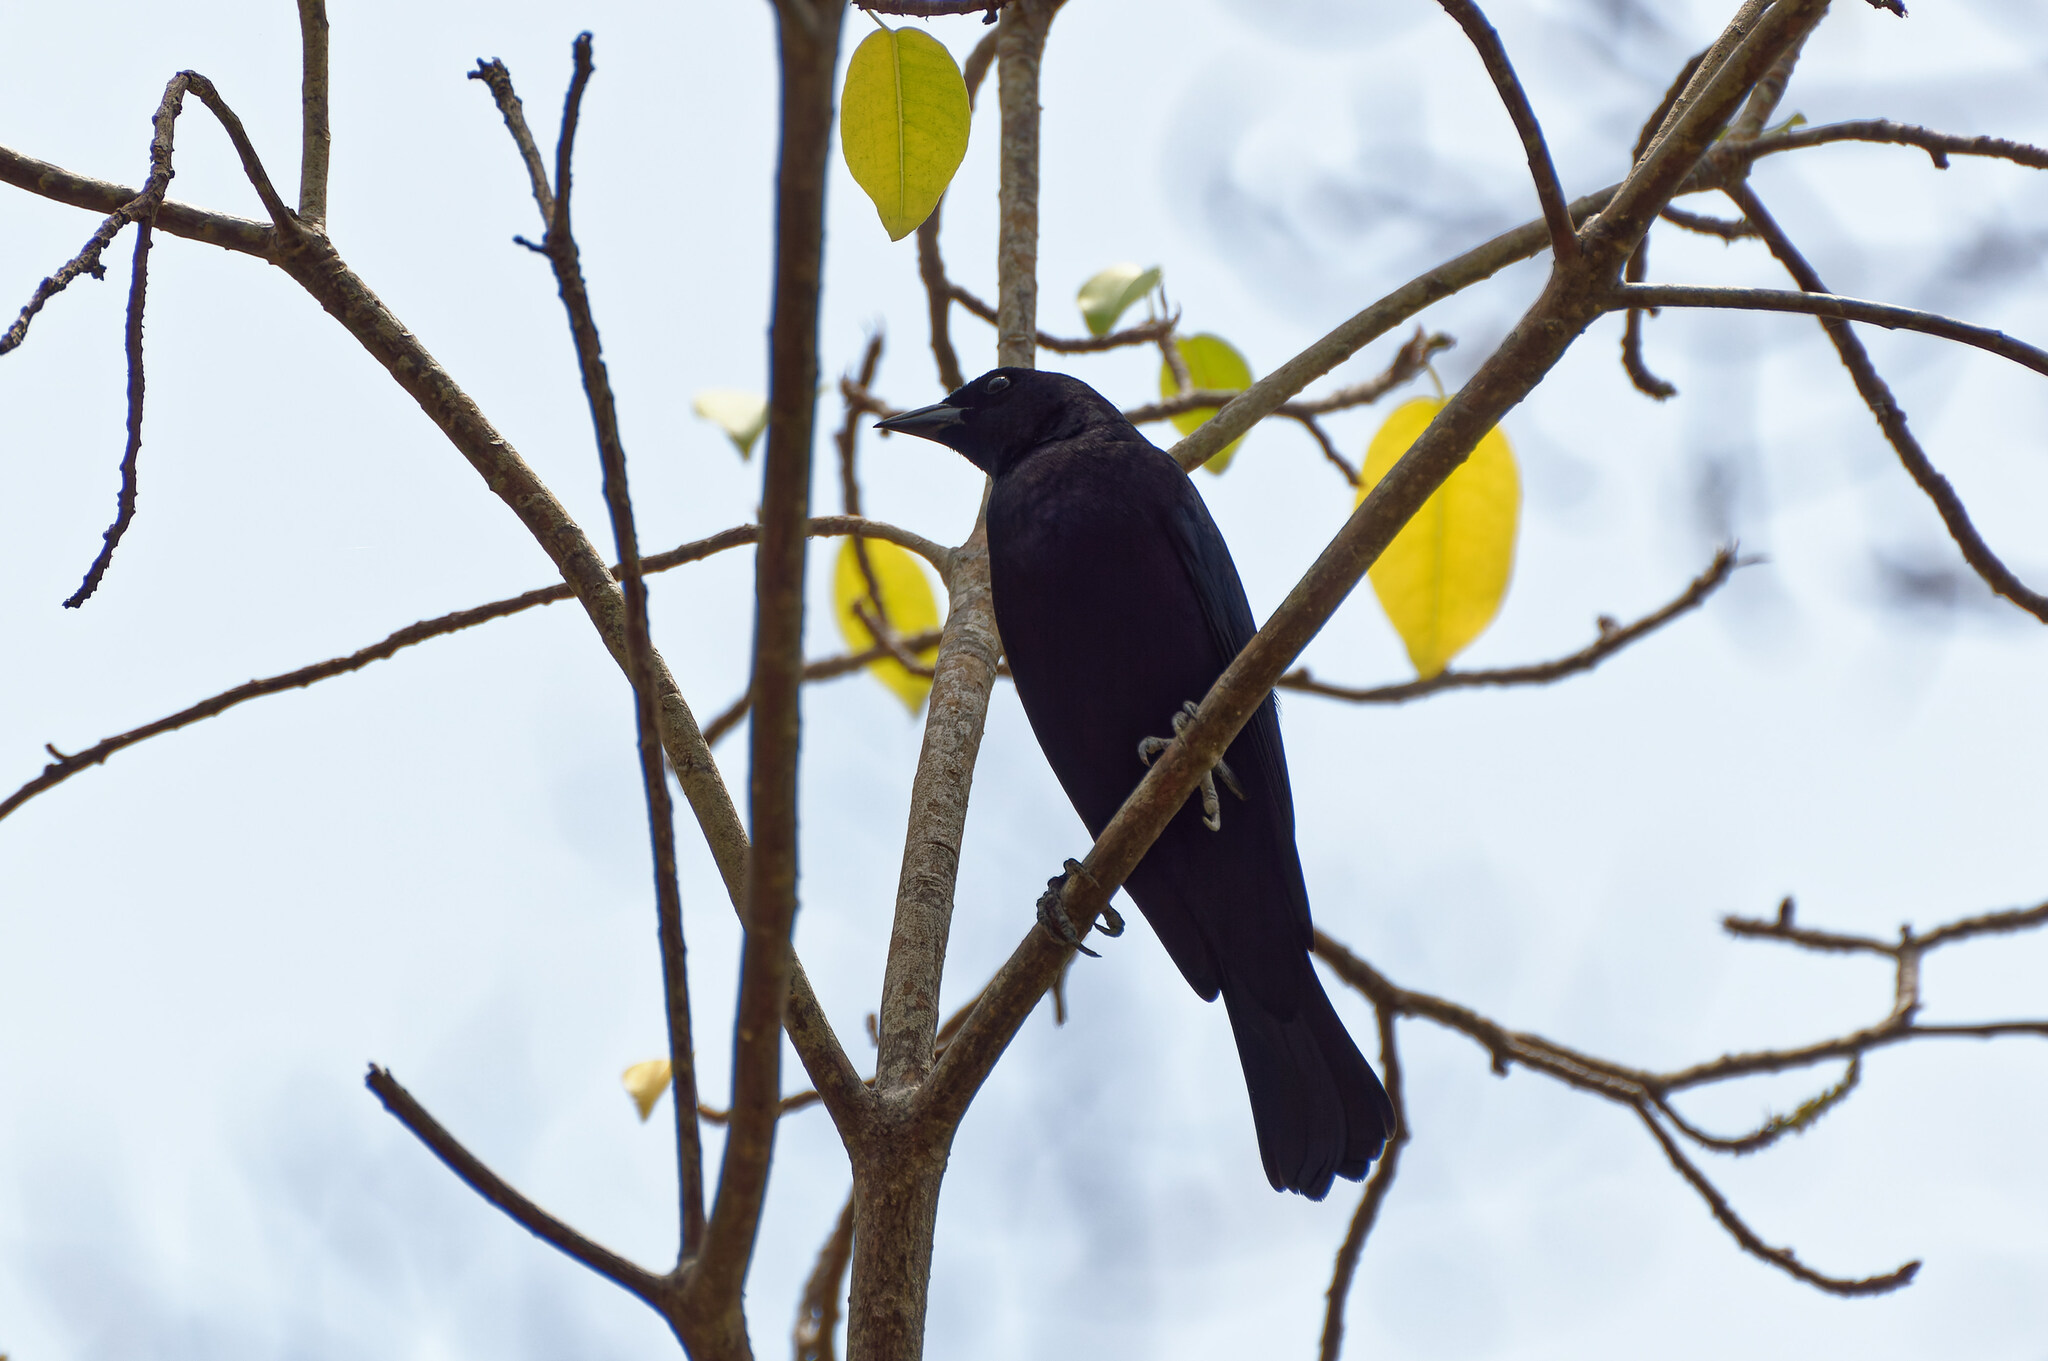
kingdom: Animalia
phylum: Chordata
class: Aves
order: Passeriformes
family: Icteridae
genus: Molothrus
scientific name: Molothrus bonariensis
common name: Shiny cowbird
